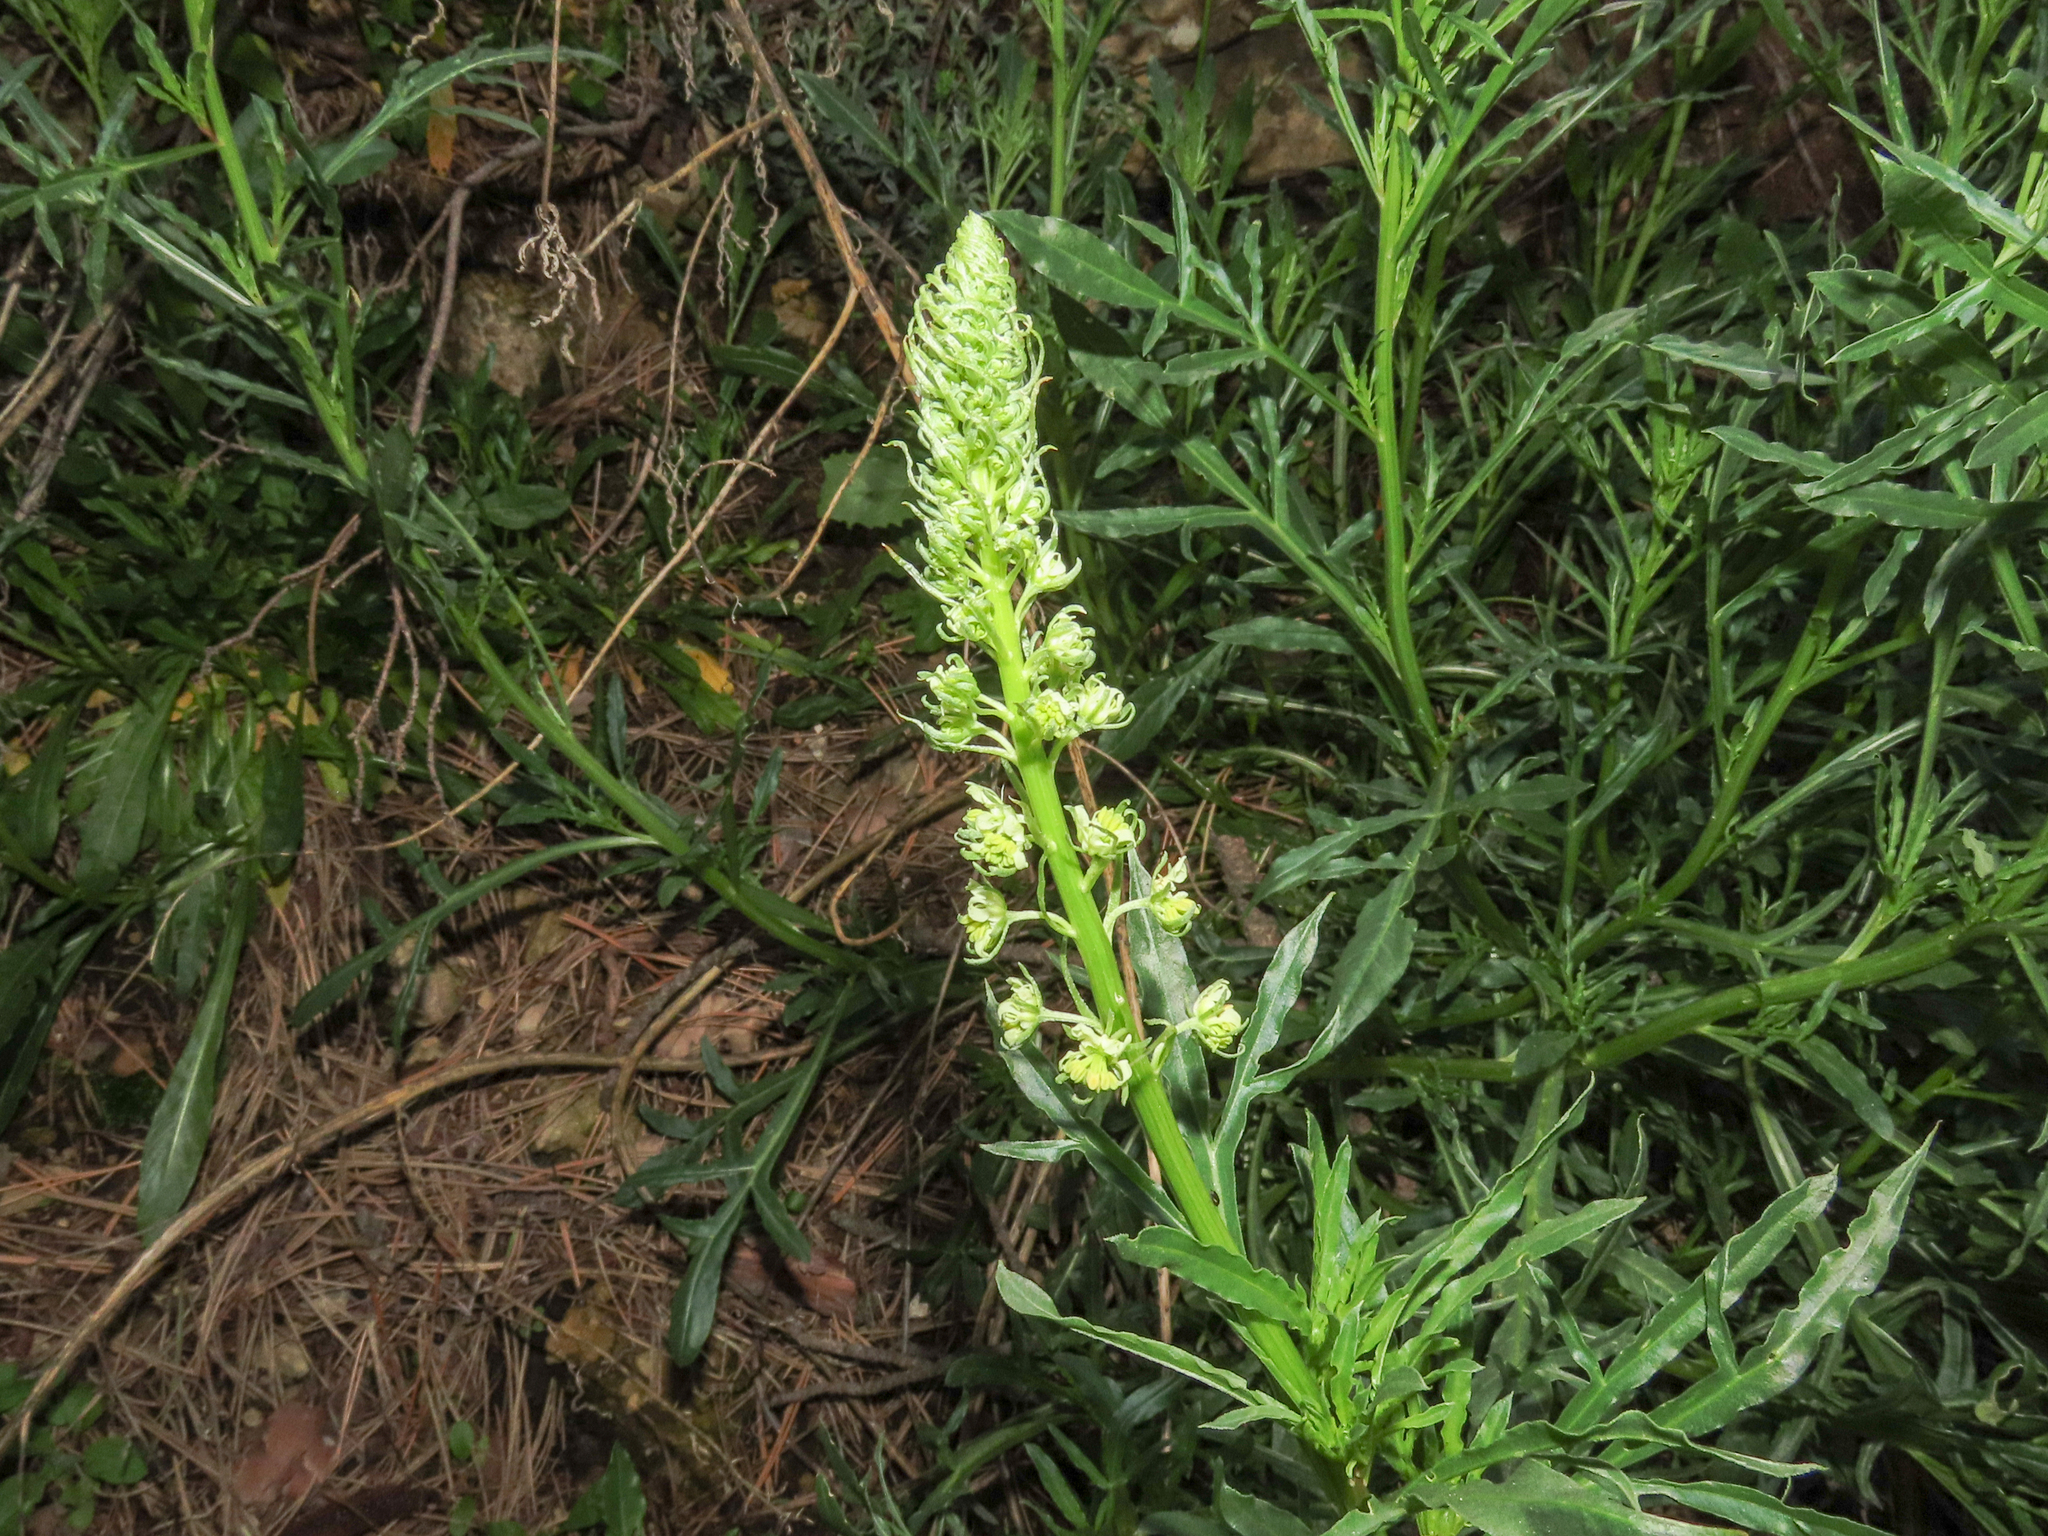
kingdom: Plantae
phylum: Tracheophyta
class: Magnoliopsida
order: Brassicales
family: Resedaceae
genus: Reseda
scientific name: Reseda lutea
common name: Wild mignonette
